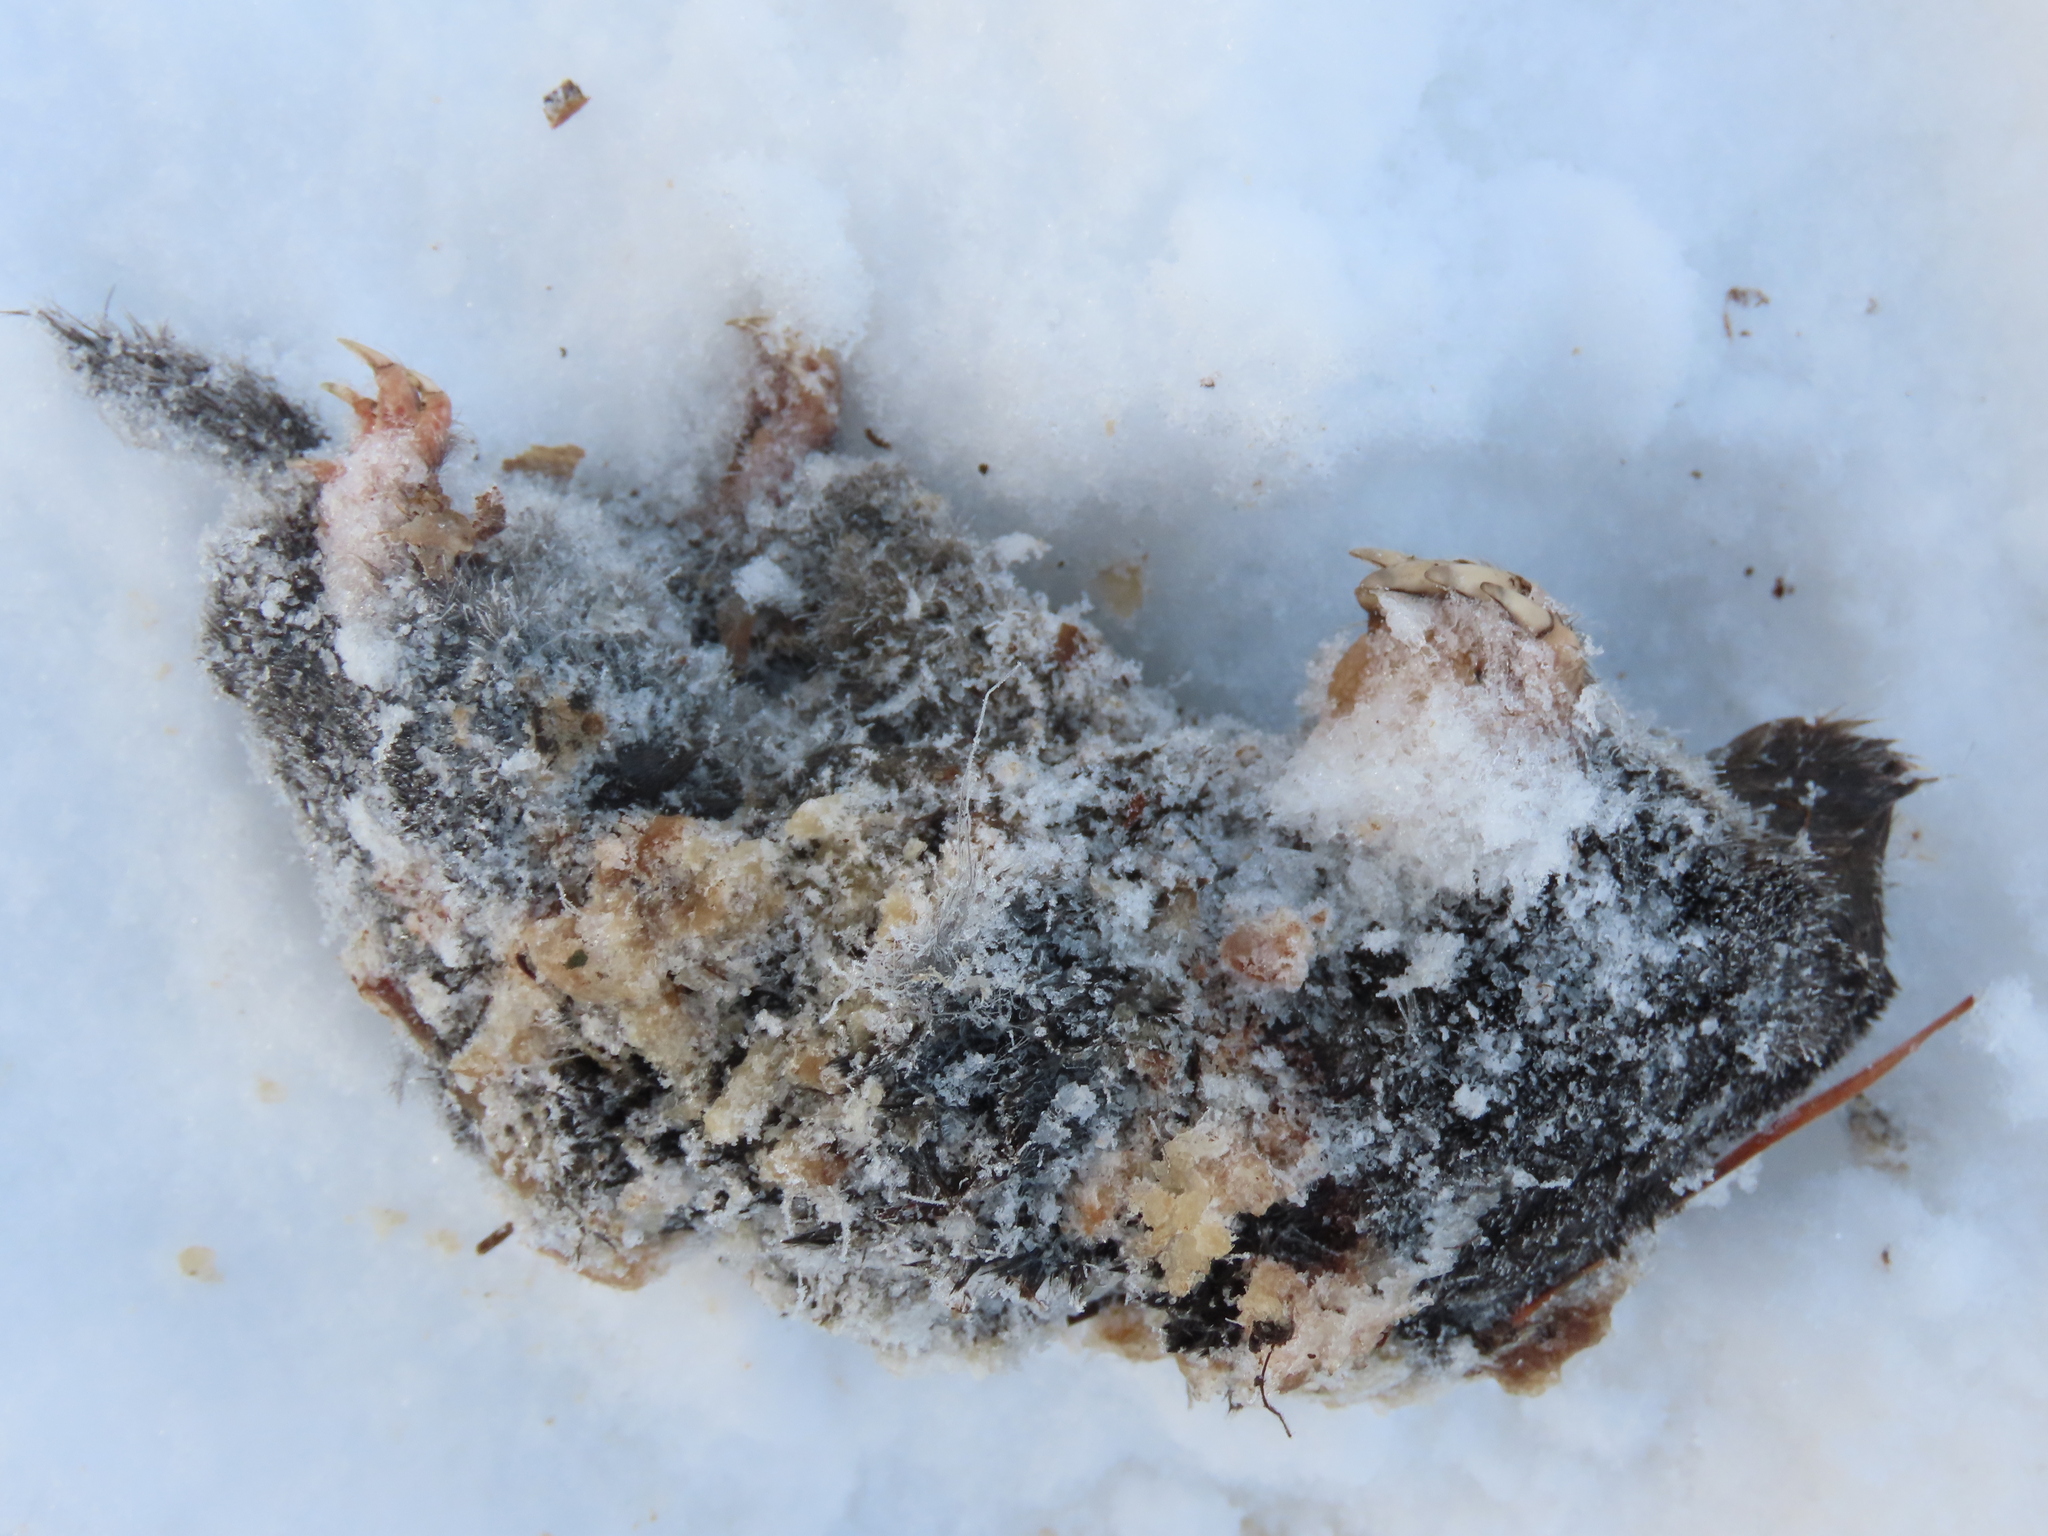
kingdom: Animalia
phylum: Chordata
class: Mammalia
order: Soricomorpha
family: Talpidae
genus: Talpa
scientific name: Talpa europaea
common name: European mole
